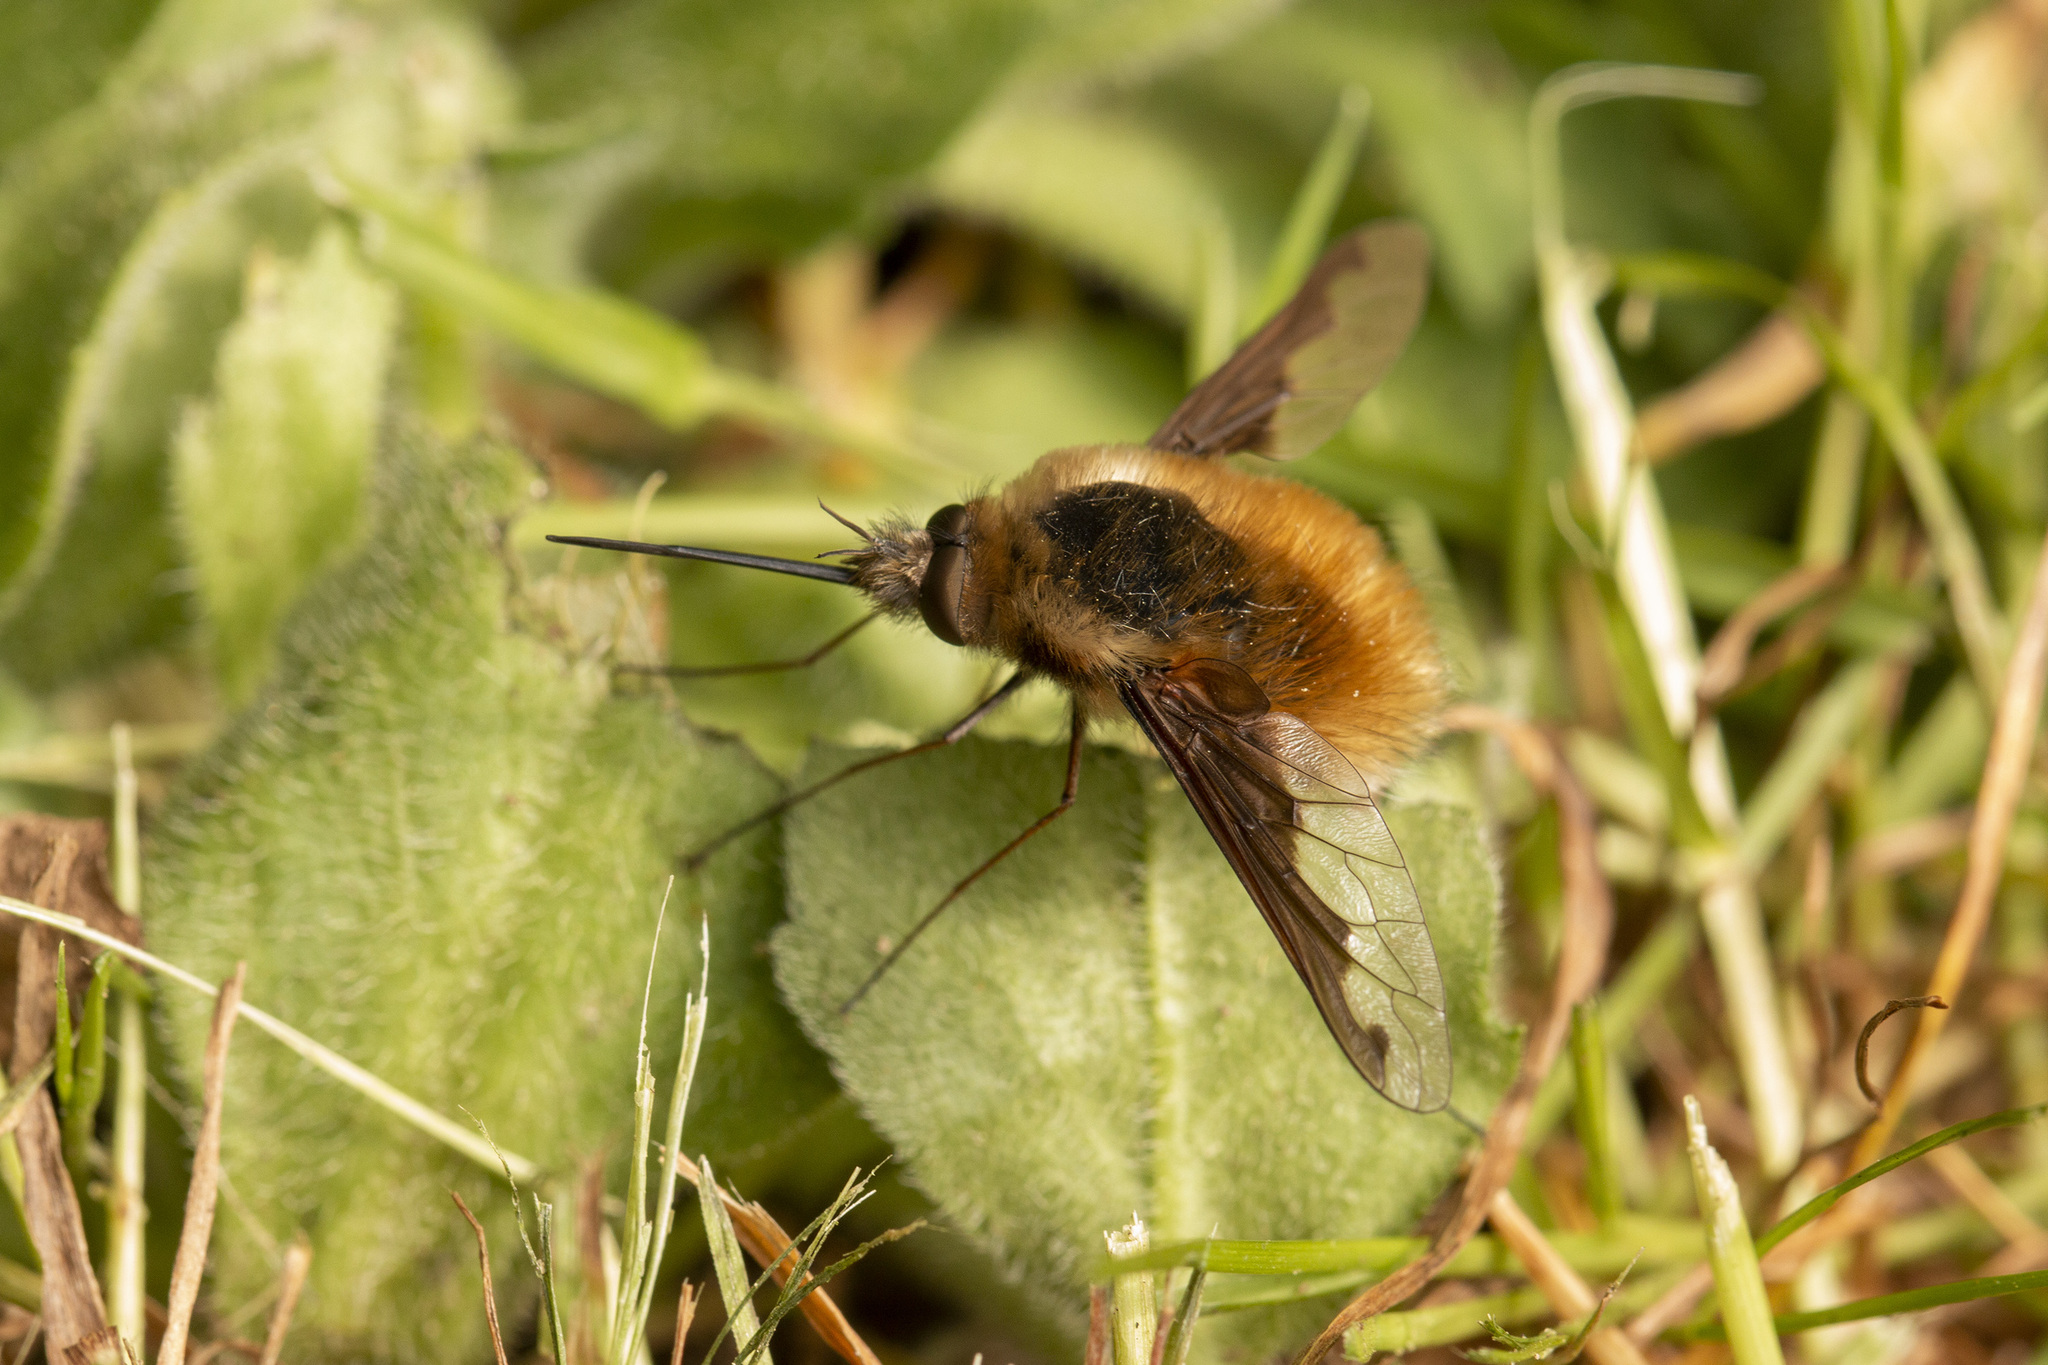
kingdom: Animalia
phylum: Arthropoda
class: Insecta
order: Diptera
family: Bombyliidae
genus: Bombylius
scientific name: Bombylius major
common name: Bee fly
